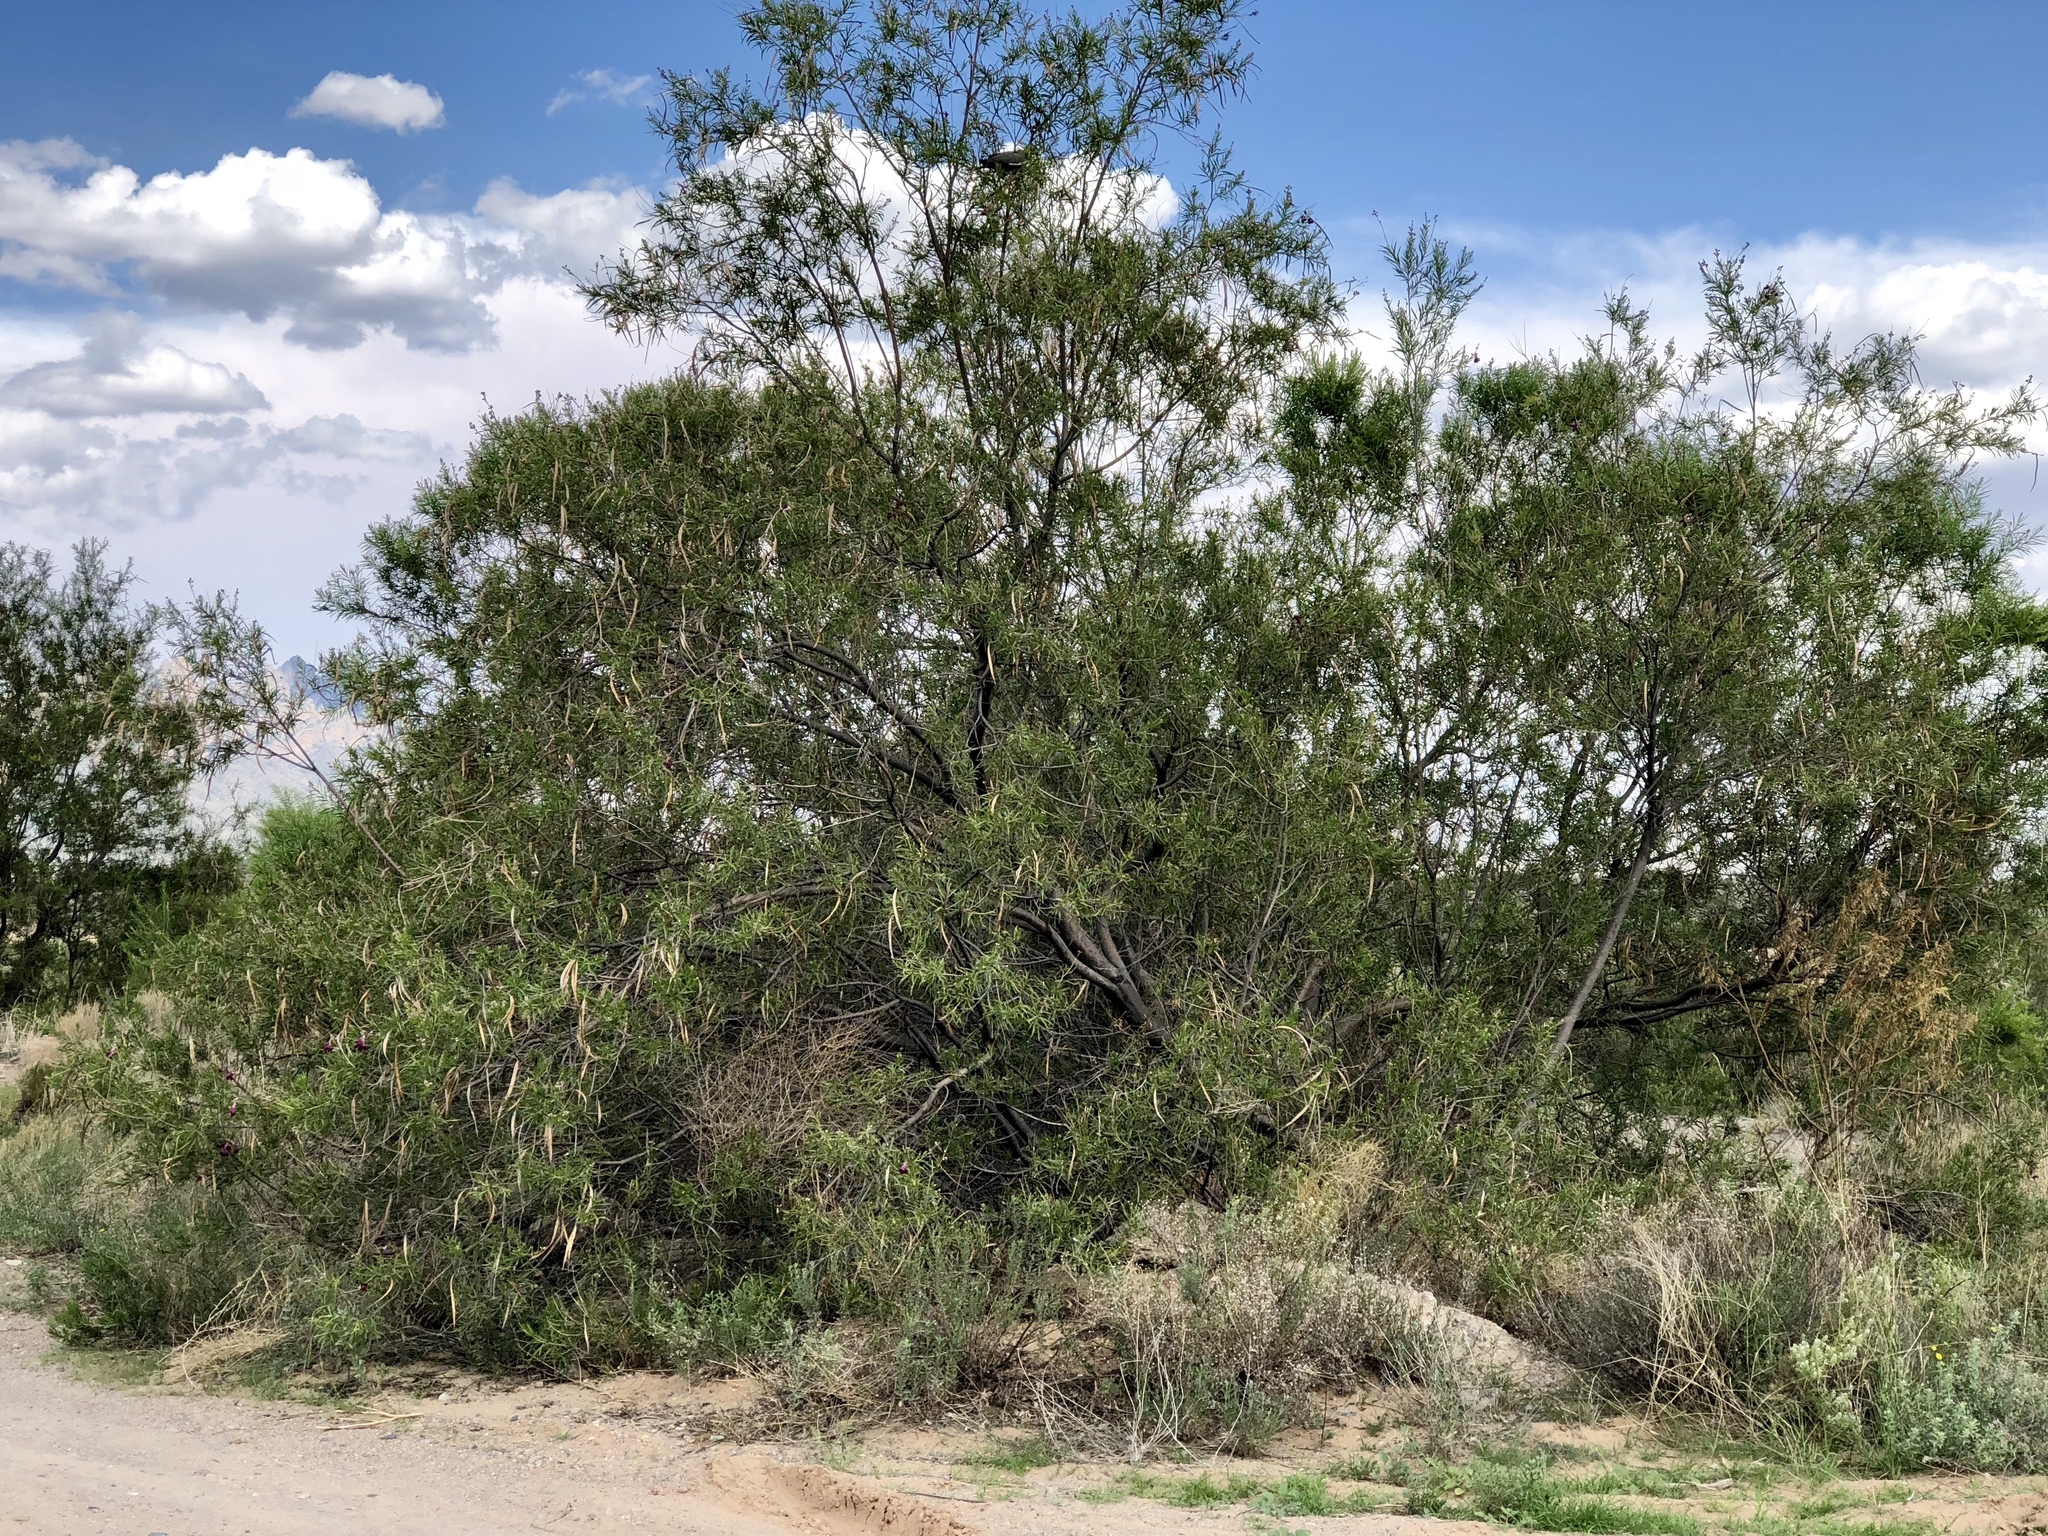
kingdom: Plantae
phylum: Tracheophyta
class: Magnoliopsida
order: Lamiales
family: Bignoniaceae
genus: Chilopsis
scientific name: Chilopsis linearis
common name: Desert-willow
